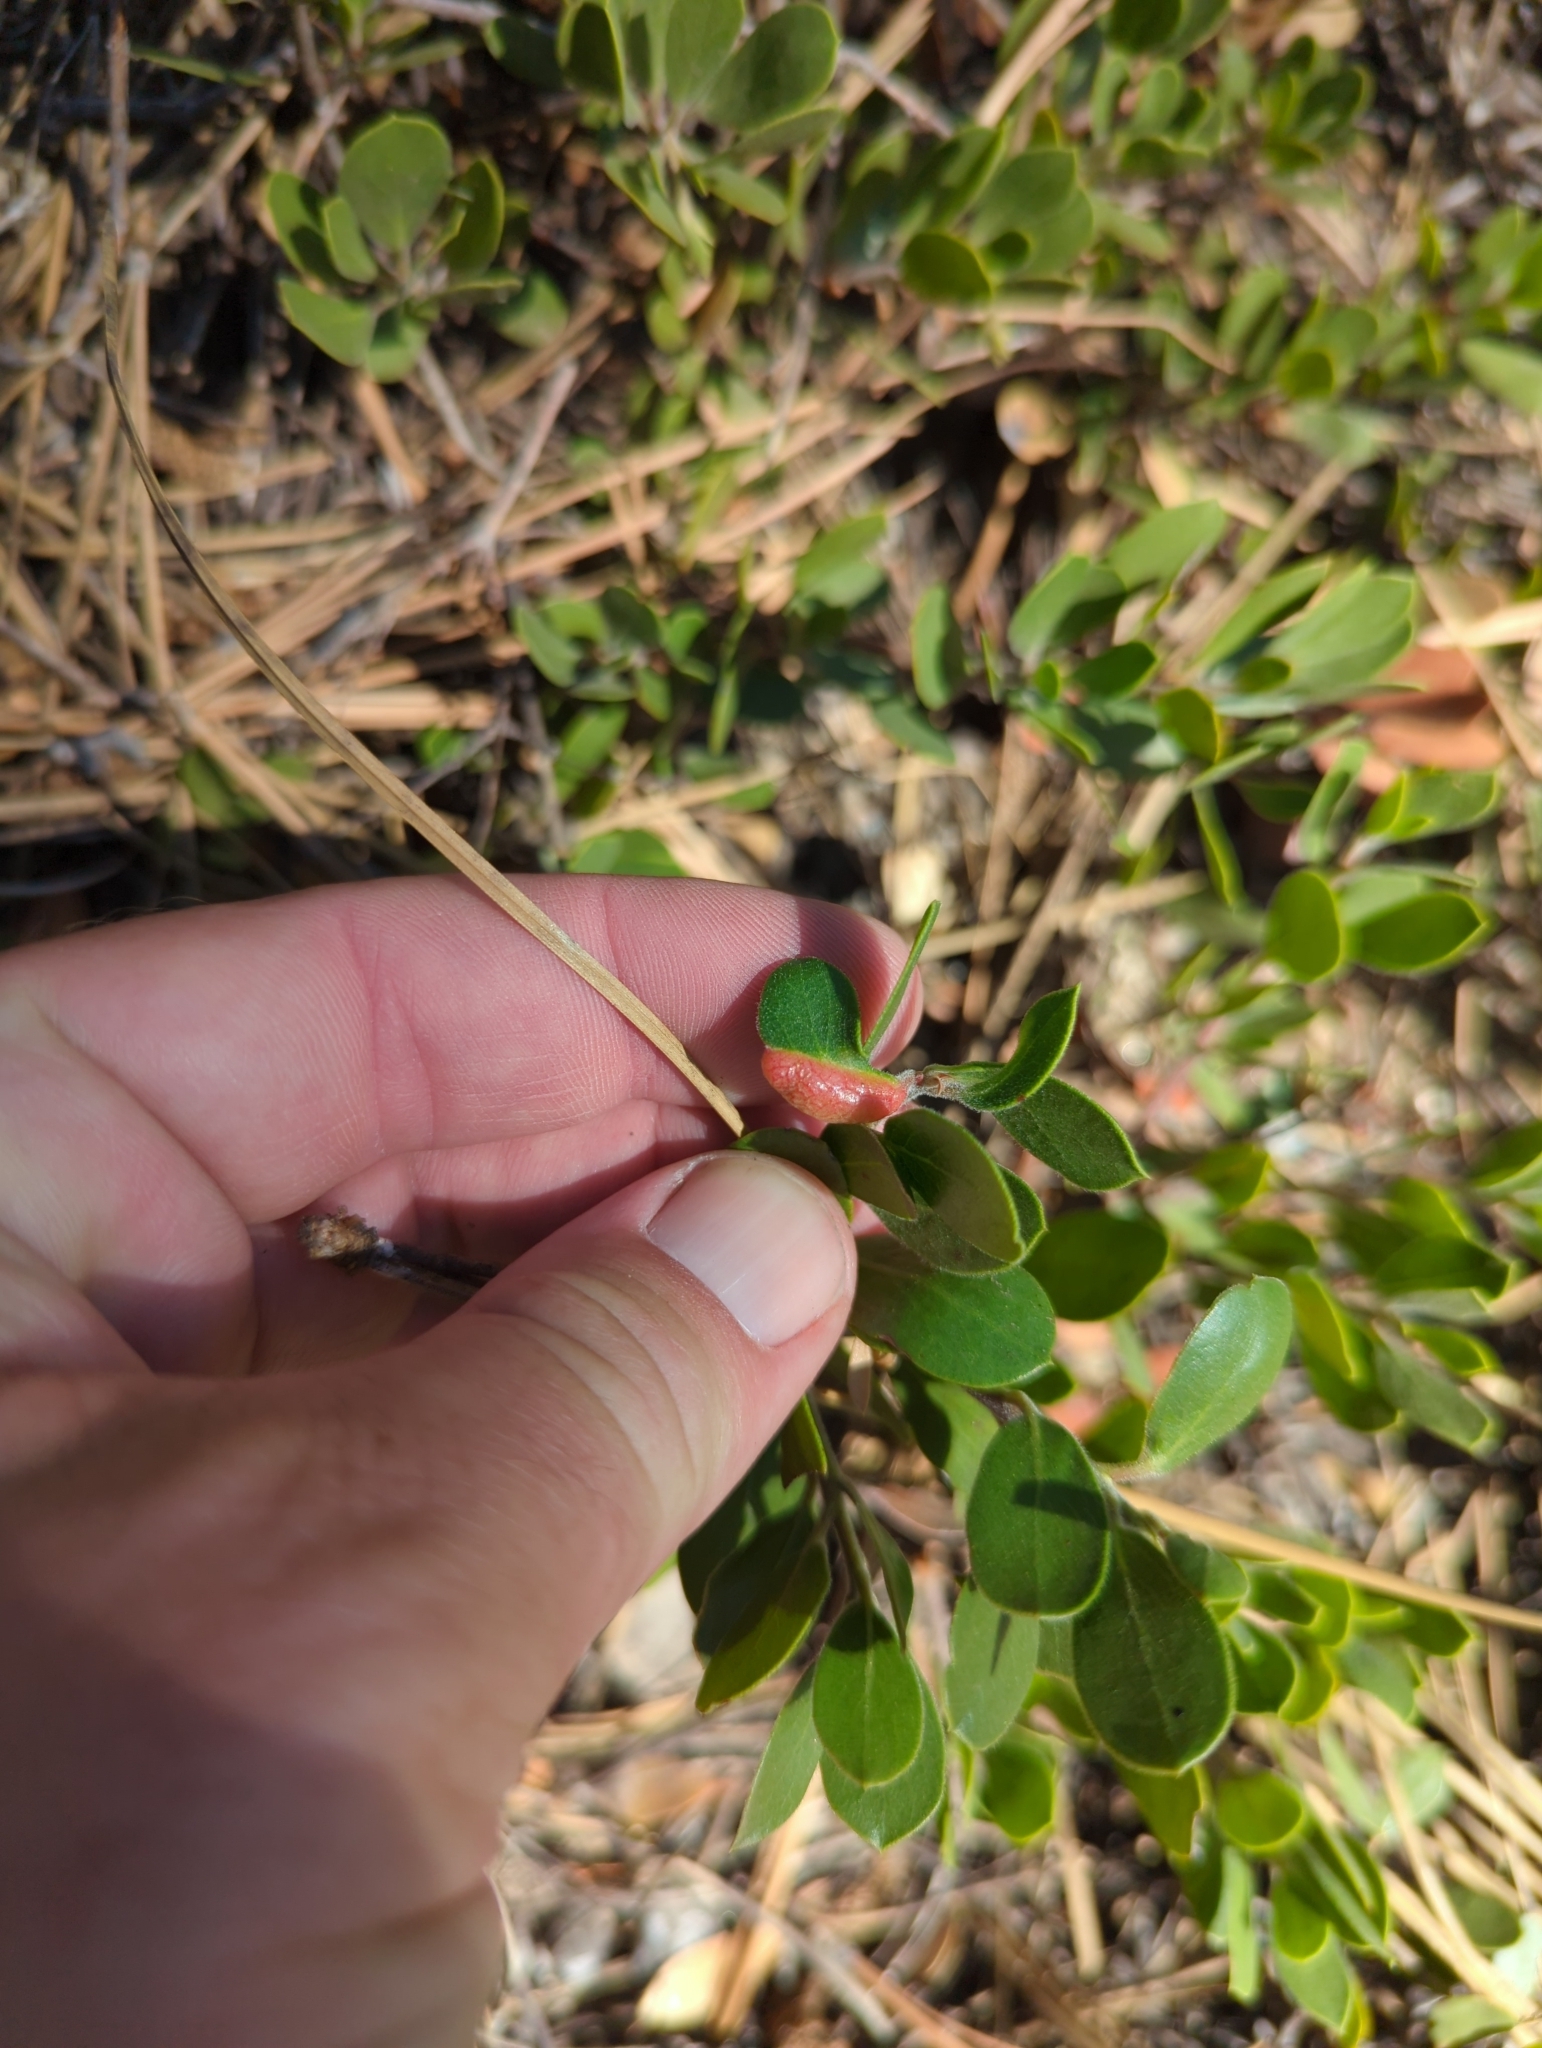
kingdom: Animalia
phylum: Arthropoda
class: Insecta
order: Hemiptera
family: Aphididae
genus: Tamalia
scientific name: Tamalia coweni
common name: Manzanita leafgall aphid
